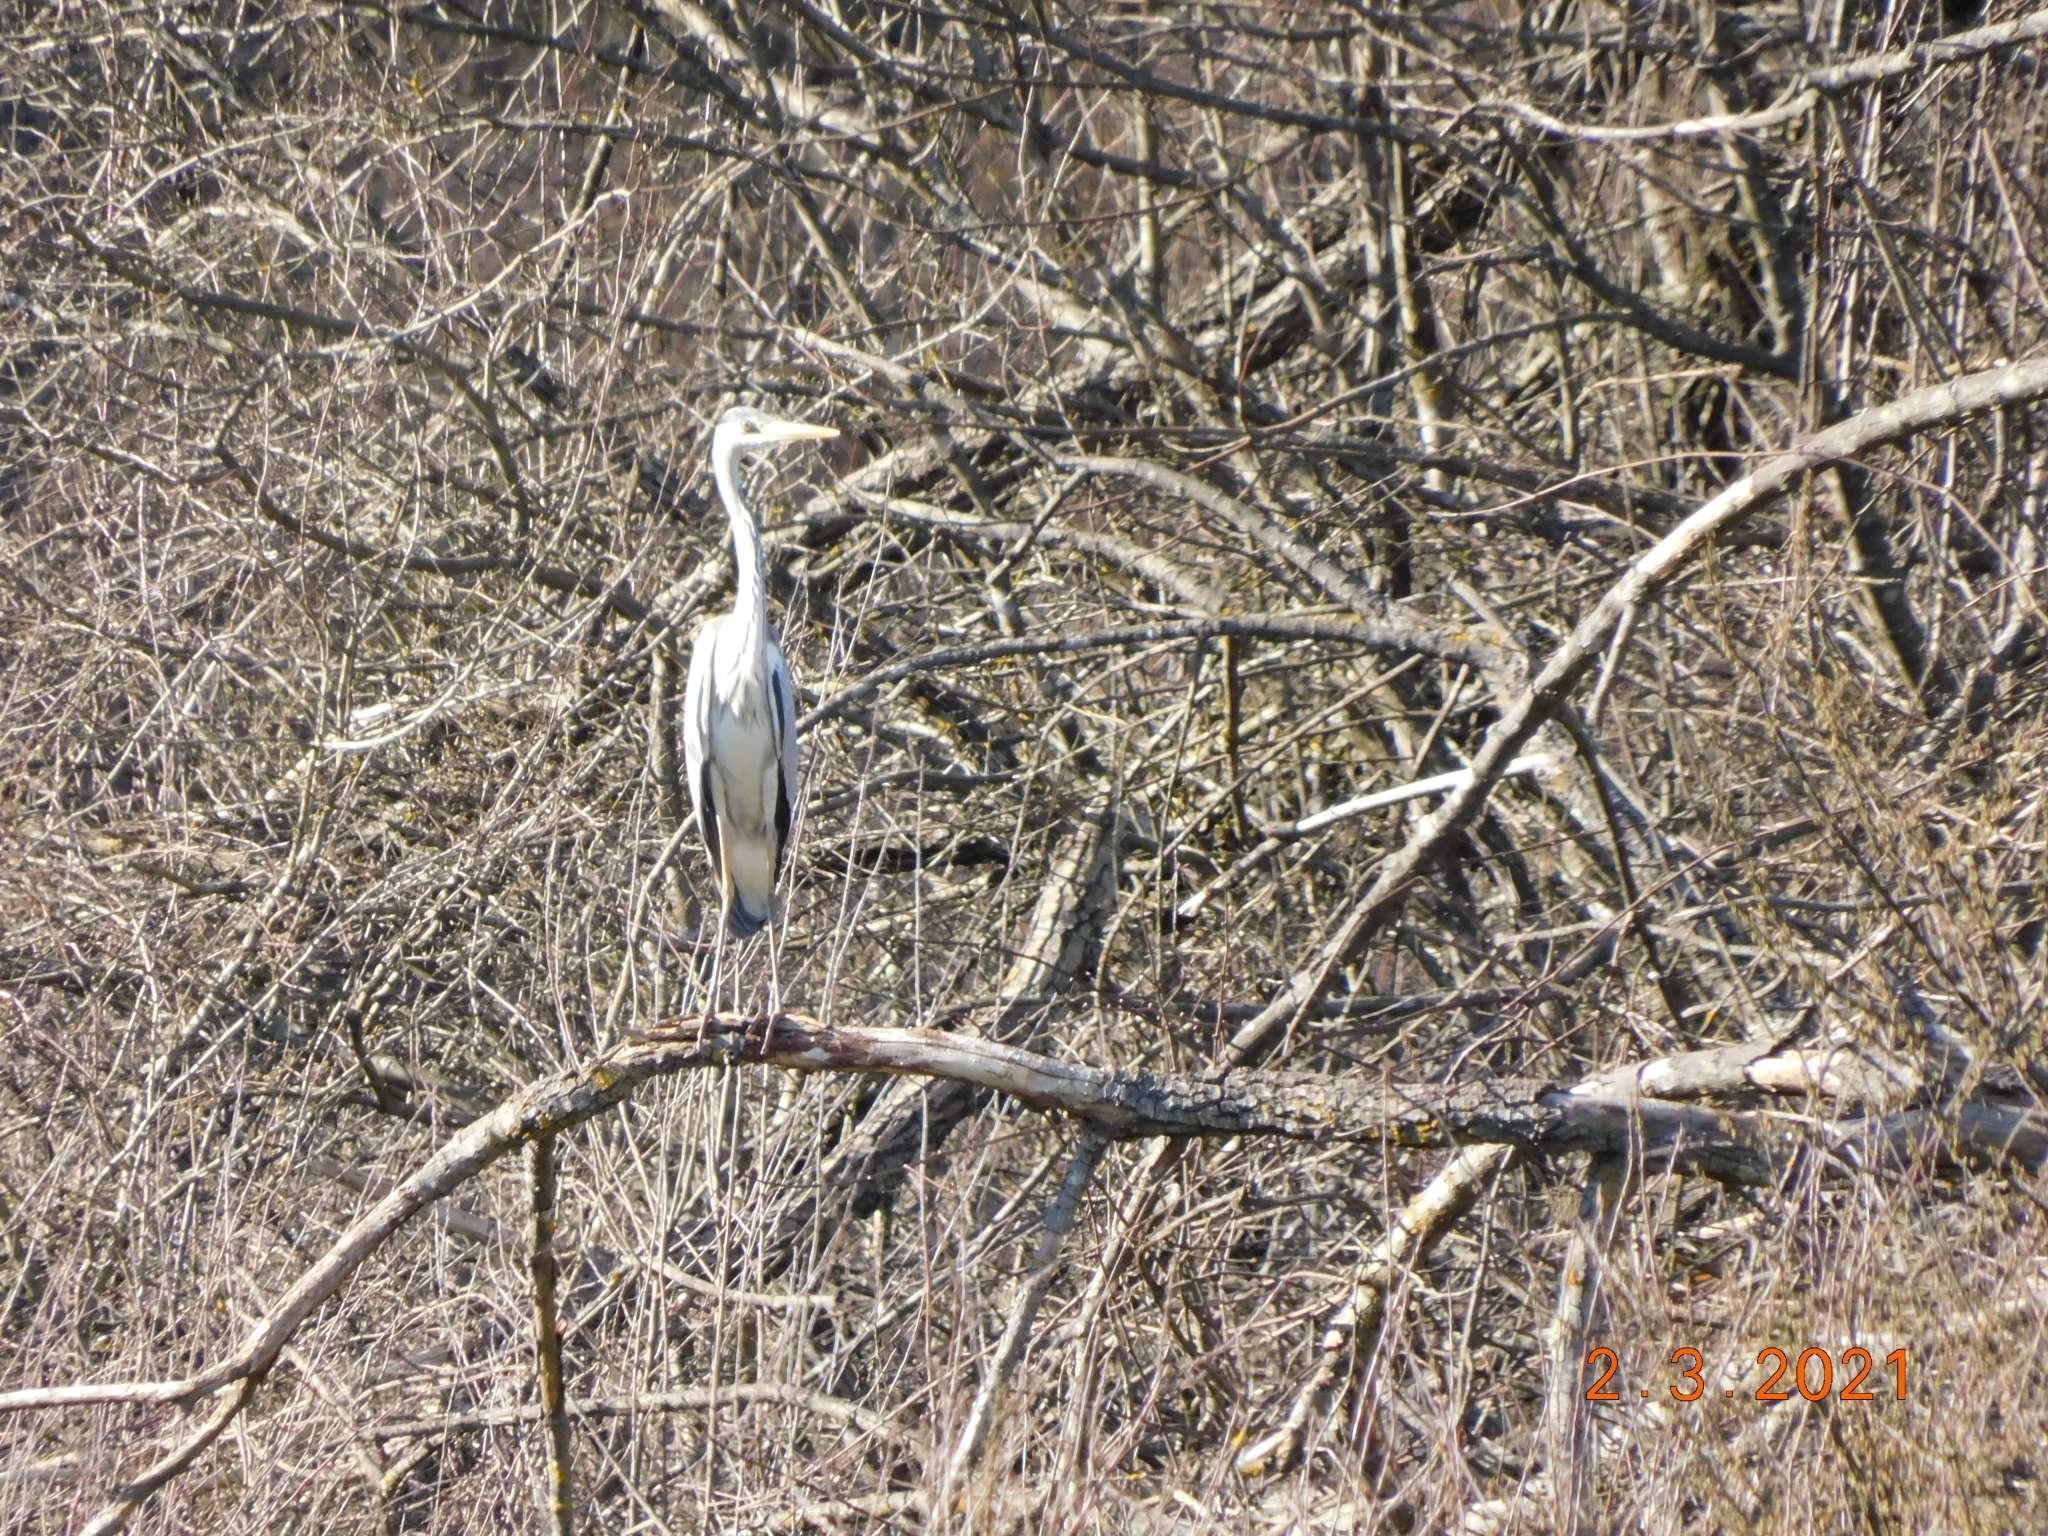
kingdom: Animalia
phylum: Chordata
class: Aves
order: Pelecaniformes
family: Ardeidae
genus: Ardea
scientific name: Ardea cinerea
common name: Grey heron
